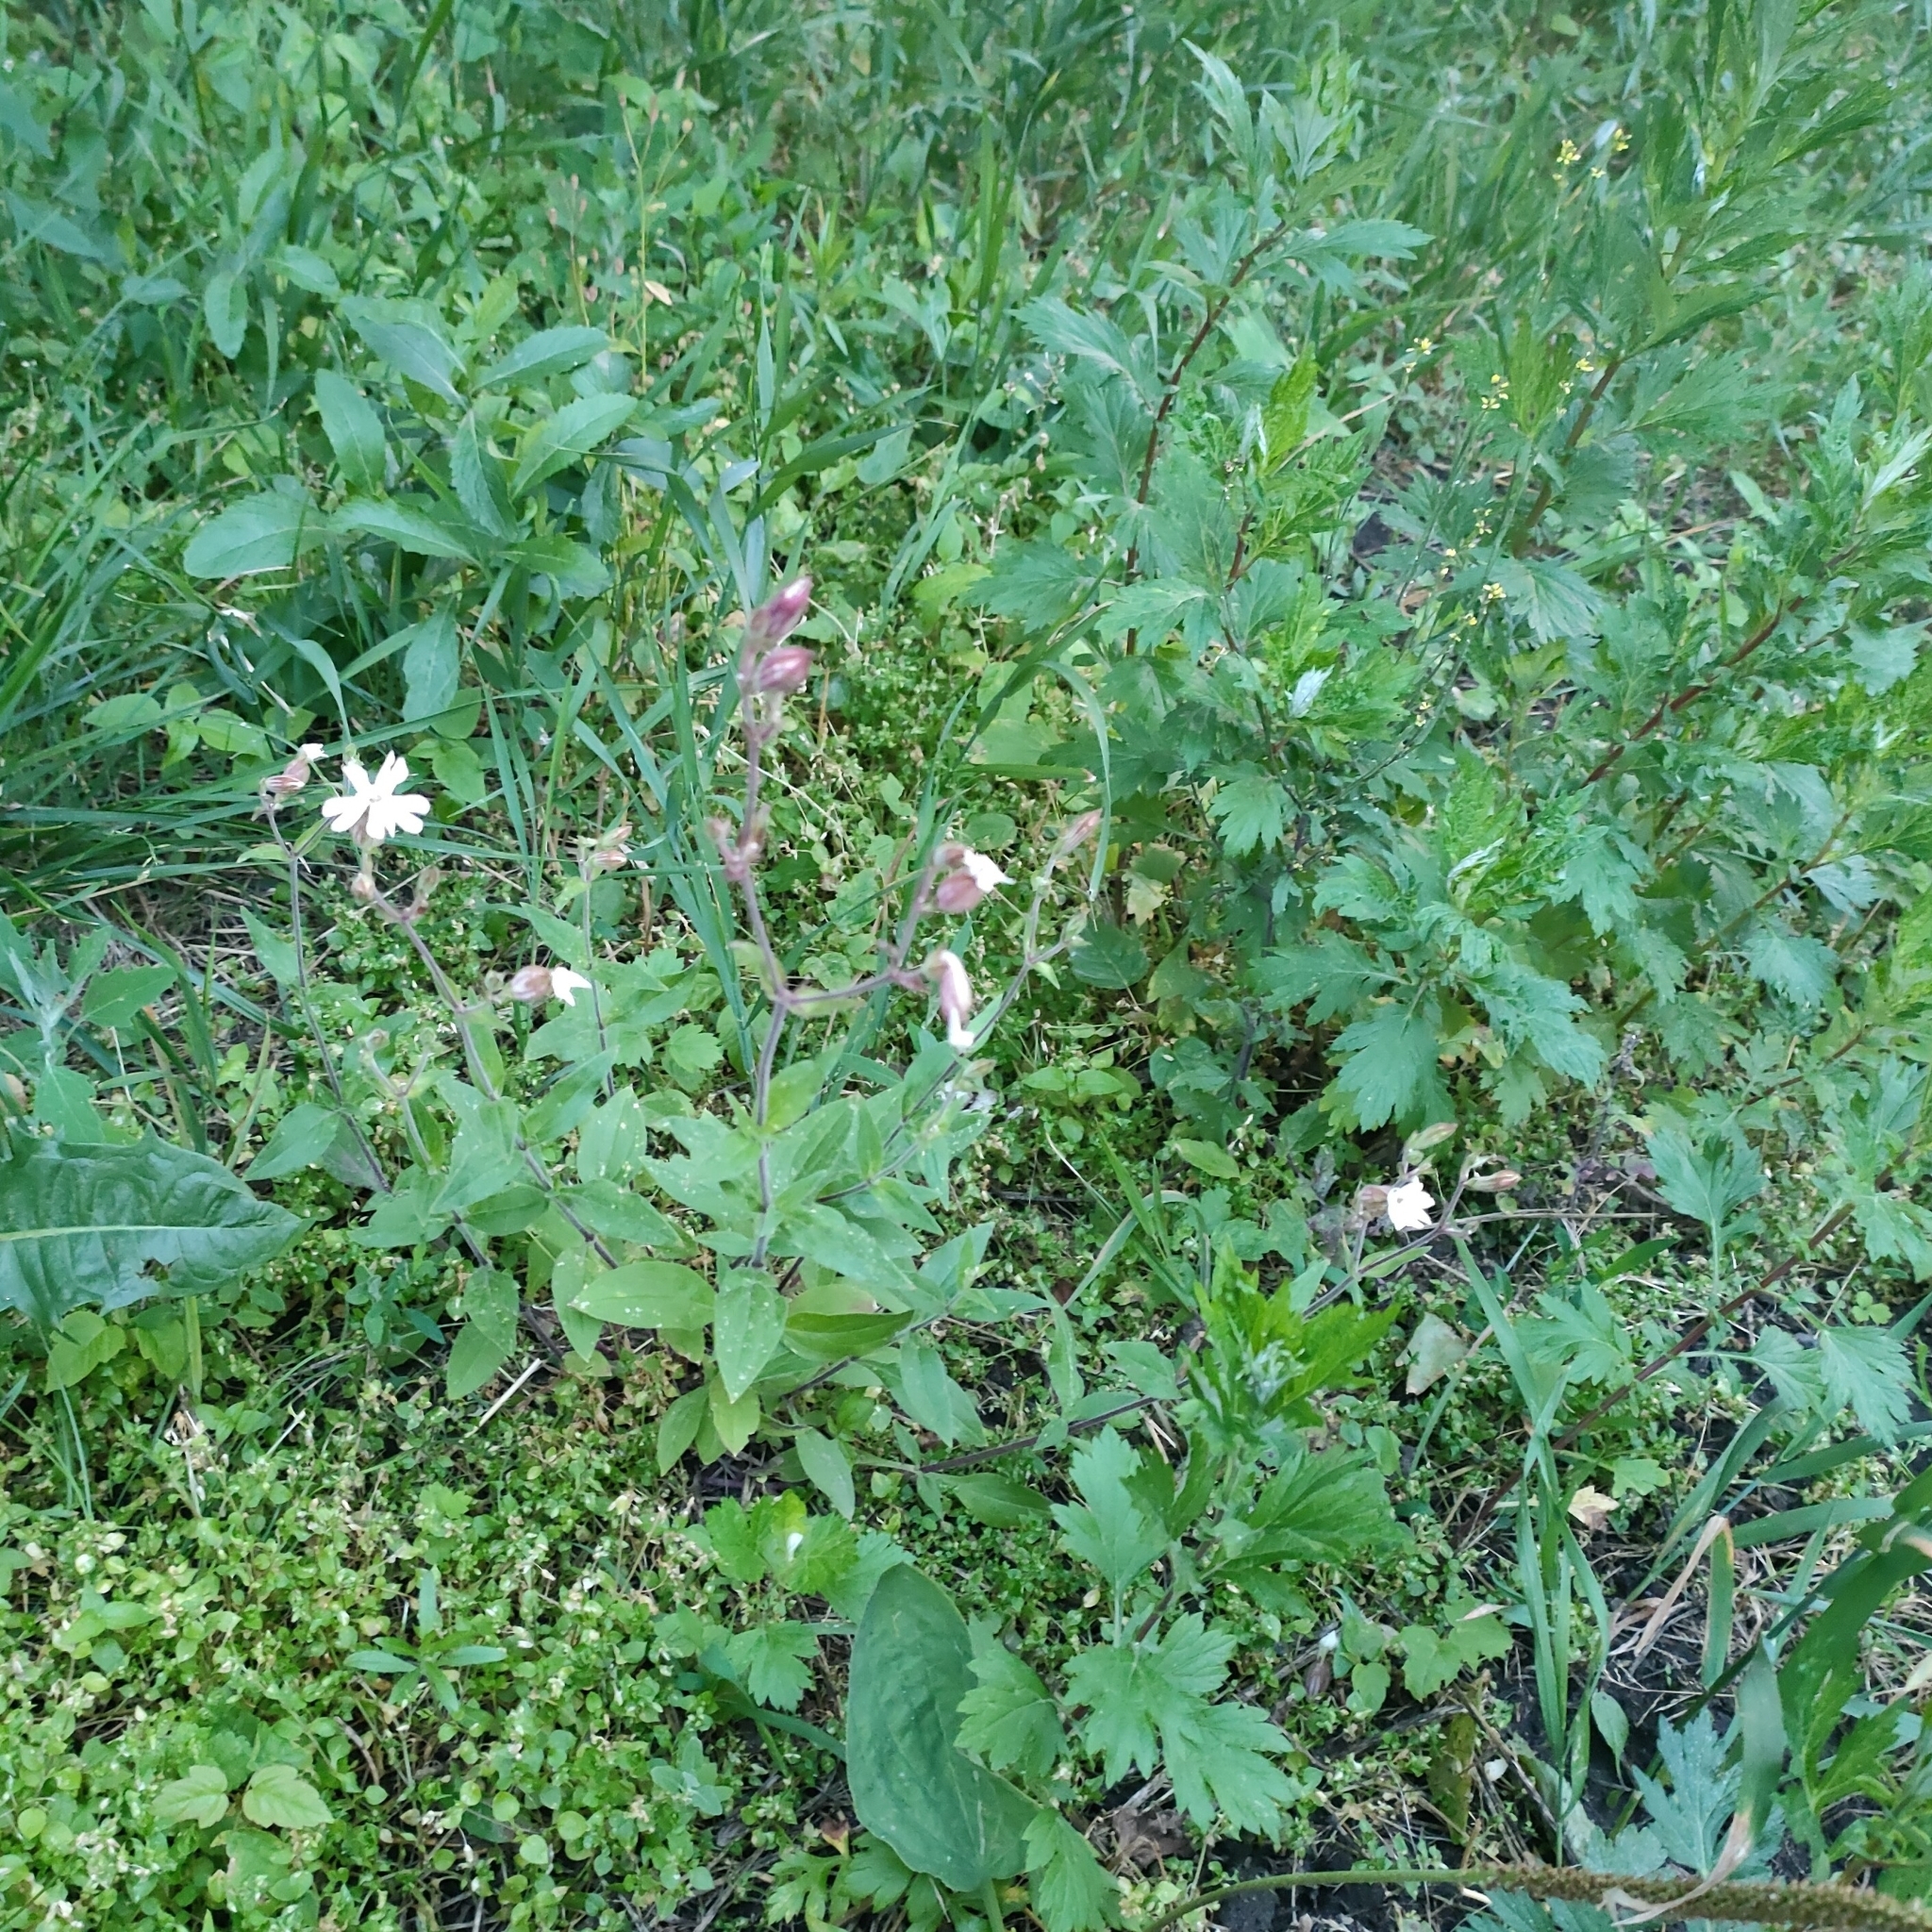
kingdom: Plantae
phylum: Tracheophyta
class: Magnoliopsida
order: Caryophyllales
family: Caryophyllaceae
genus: Silene
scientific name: Silene latifolia
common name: White campion
